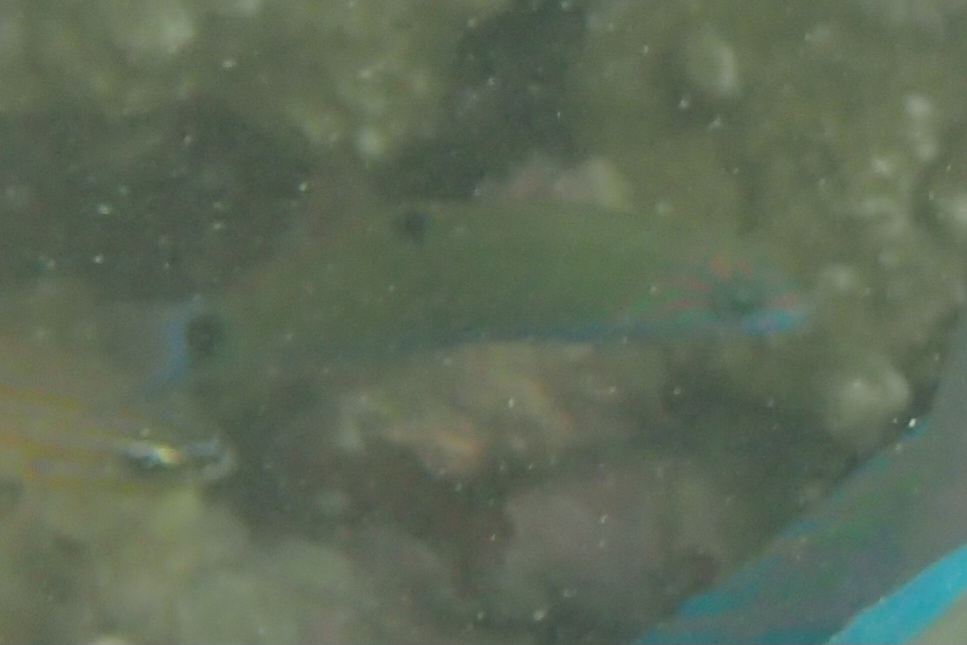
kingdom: Animalia
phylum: Chordata
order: Perciformes
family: Labridae
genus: Thalassoma
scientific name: Thalassoma lunare
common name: Blue wrasse
